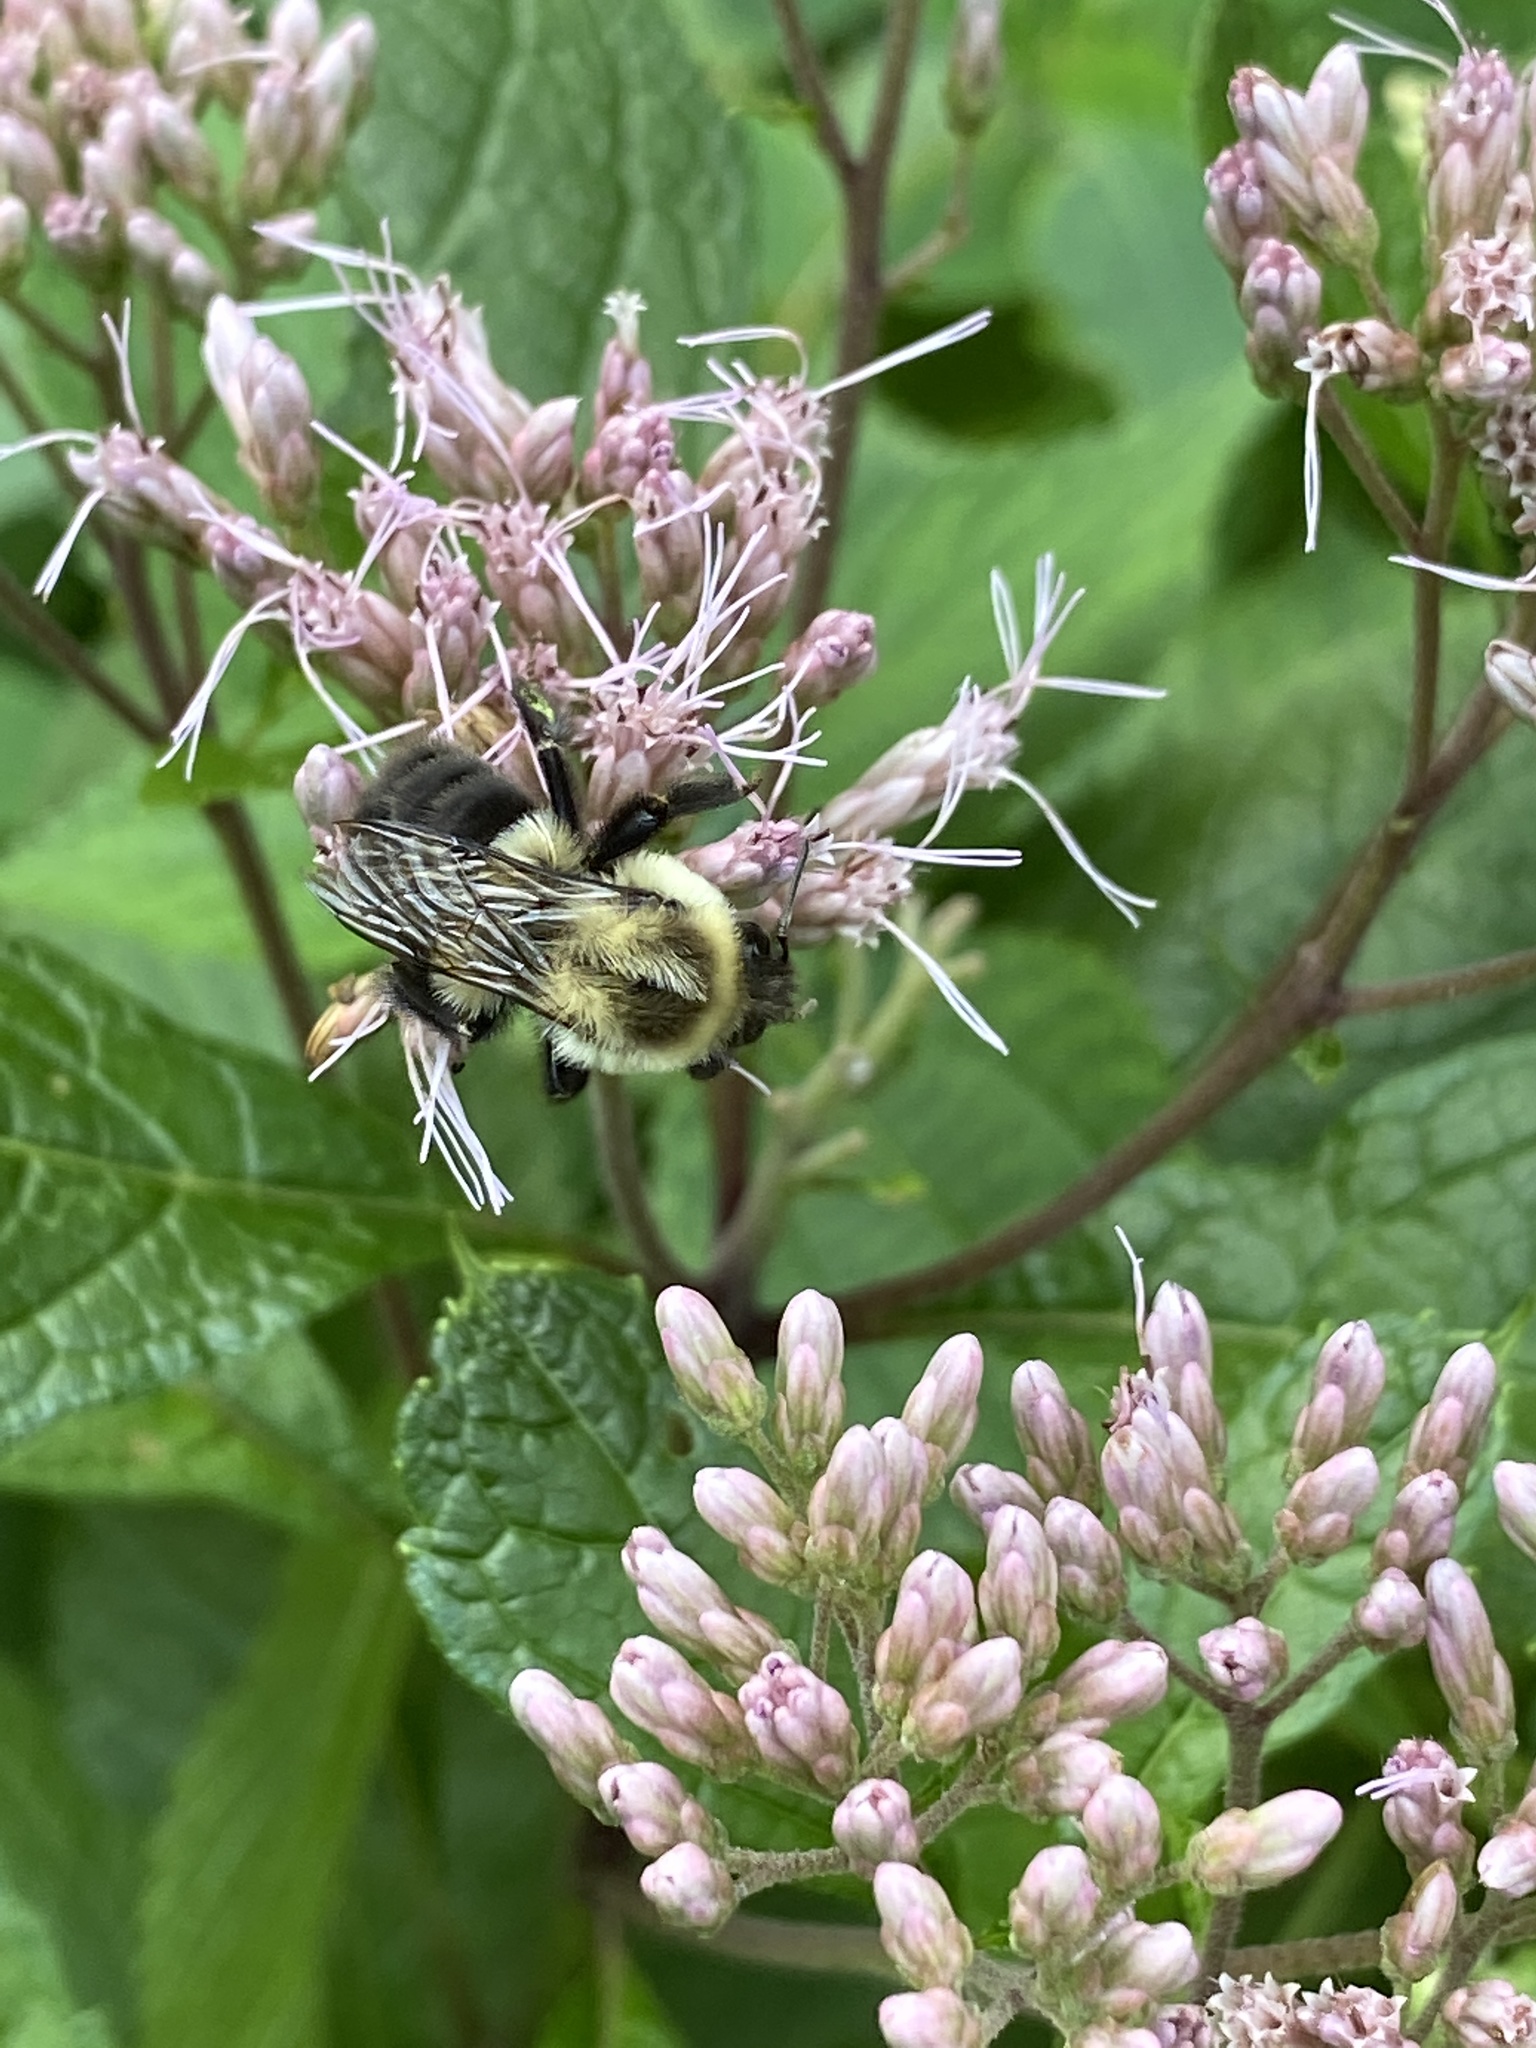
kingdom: Animalia
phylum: Arthropoda
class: Insecta
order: Hymenoptera
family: Apidae
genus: Bombus
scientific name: Bombus impatiens
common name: Common eastern bumble bee
